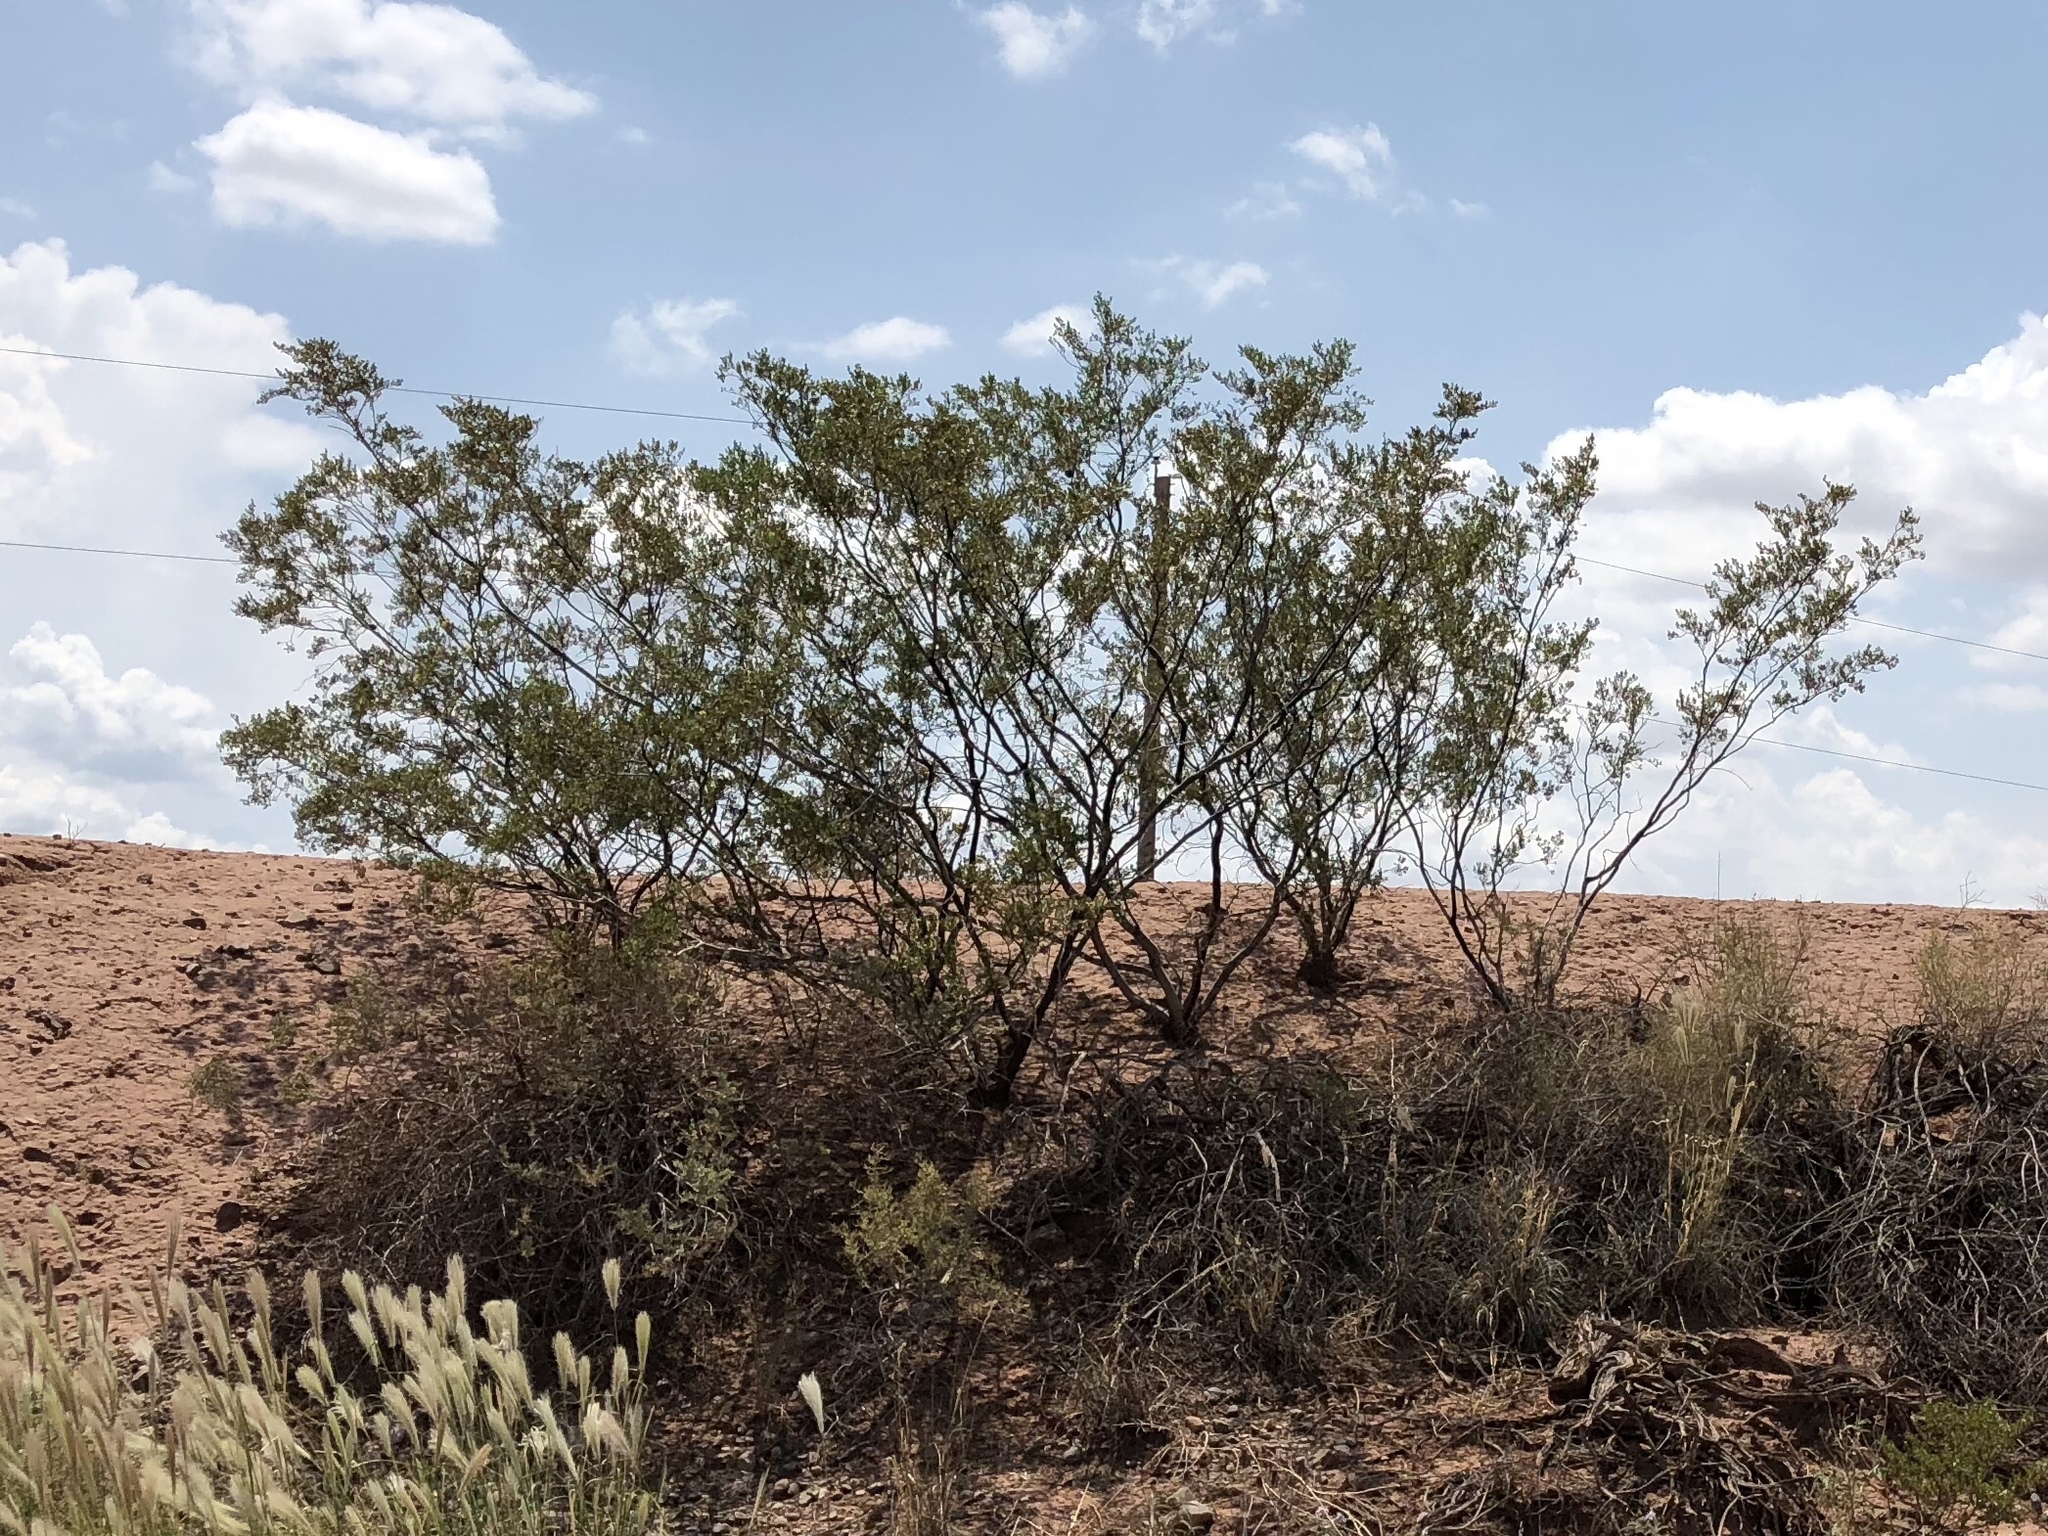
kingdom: Plantae
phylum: Tracheophyta
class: Magnoliopsida
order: Zygophyllales
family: Zygophyllaceae
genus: Larrea
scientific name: Larrea tridentata
